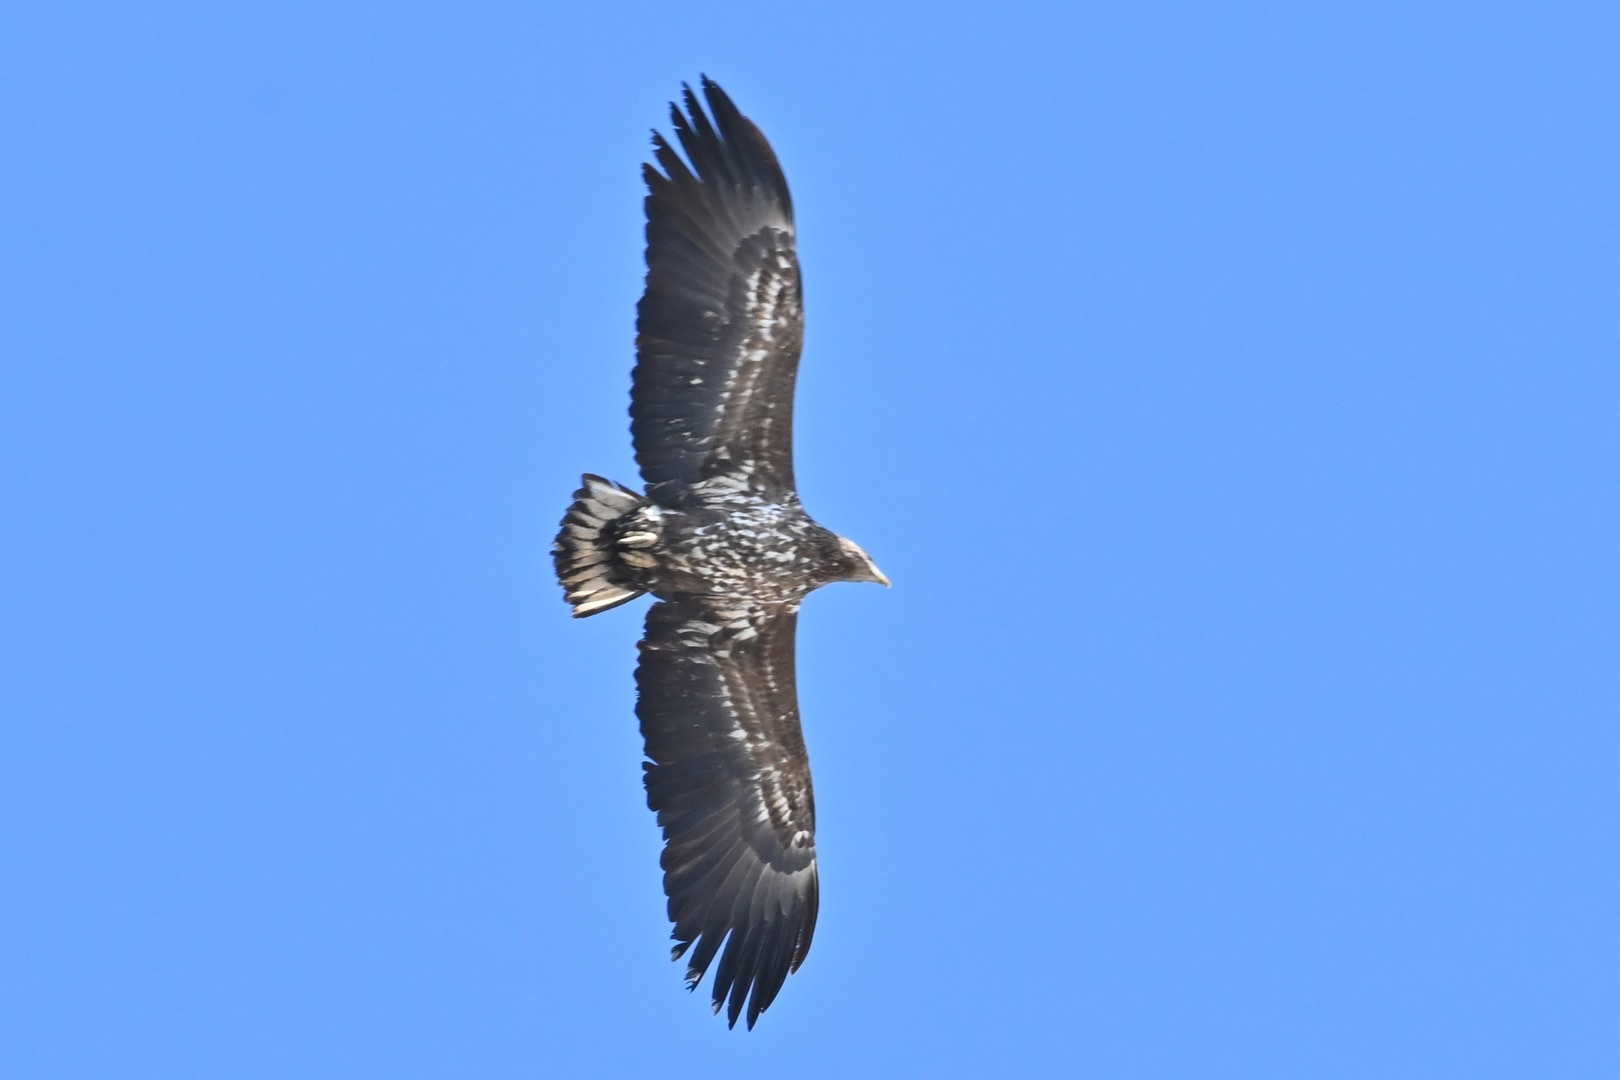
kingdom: Animalia
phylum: Chordata
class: Aves
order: Accipitriformes
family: Accipitridae
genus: Haliaeetus
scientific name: Haliaeetus albicilla
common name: White-tailed eagle
